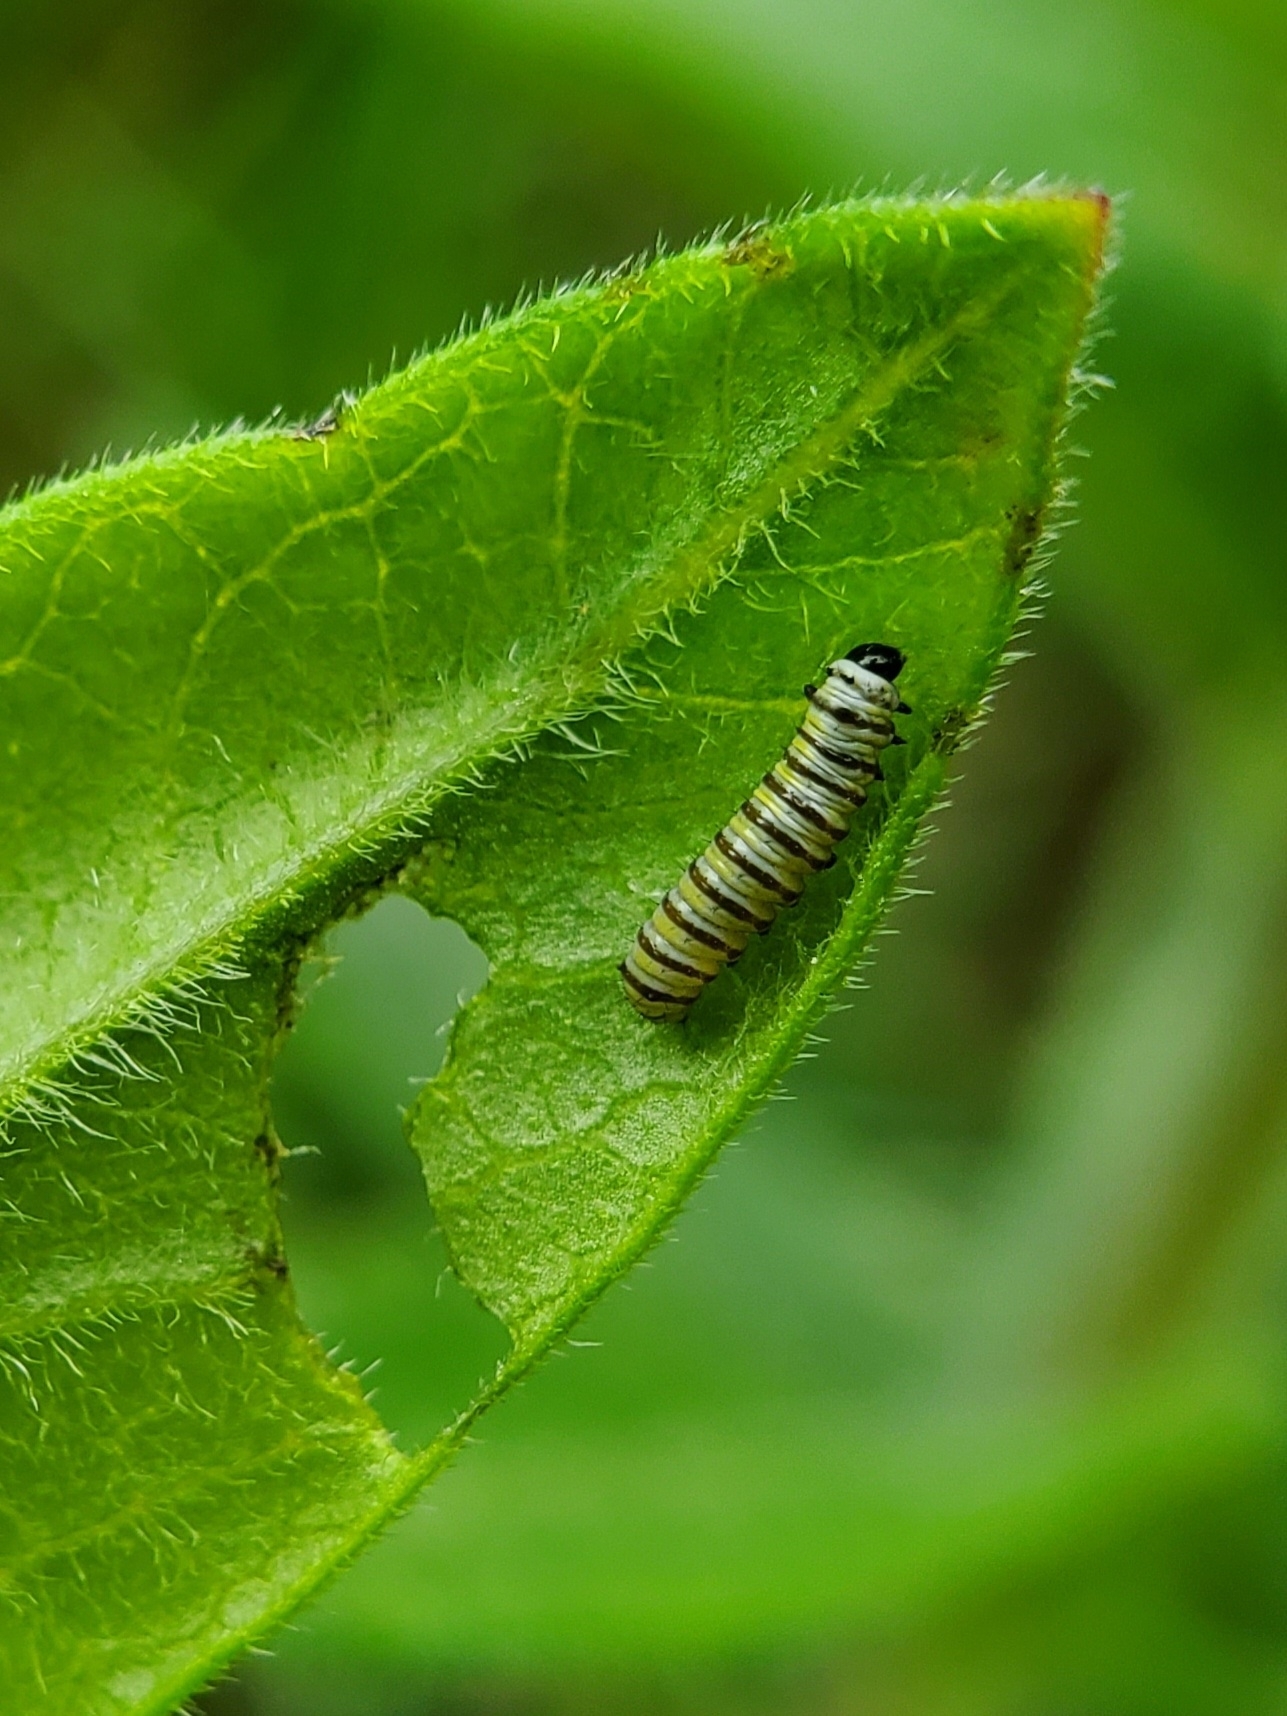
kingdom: Animalia
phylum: Arthropoda
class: Insecta
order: Lepidoptera
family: Nymphalidae
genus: Danaus
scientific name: Danaus plexippus
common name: Monarch
